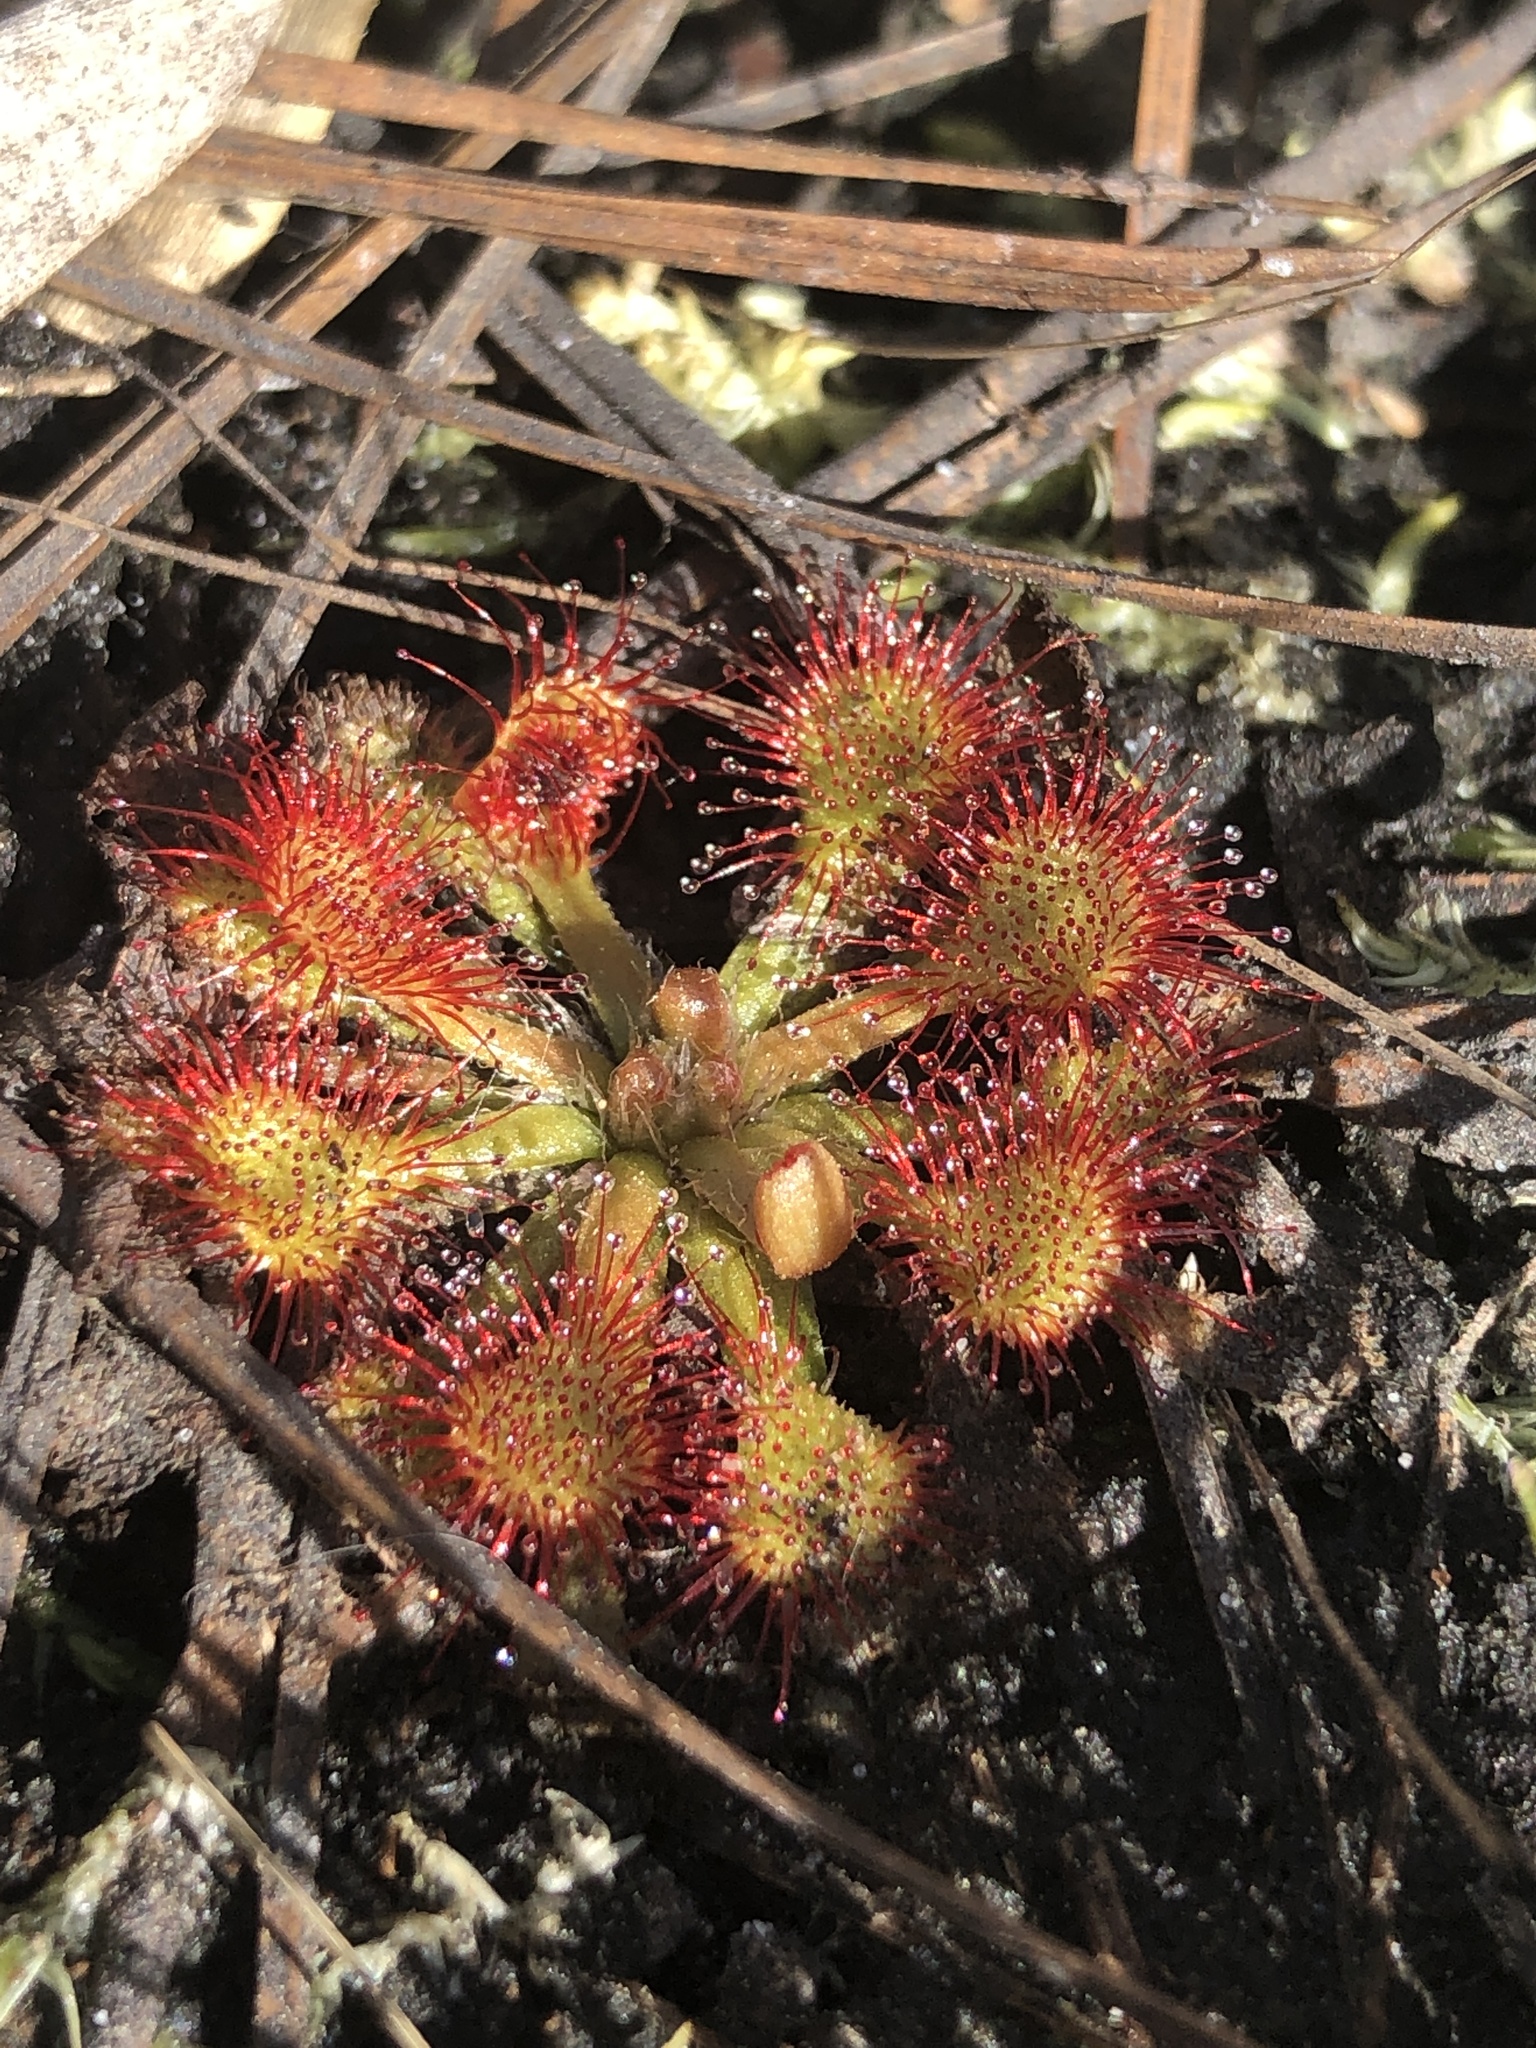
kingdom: Plantae
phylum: Tracheophyta
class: Magnoliopsida
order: Caryophyllales
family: Droseraceae
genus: Drosera
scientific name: Drosera capillaris
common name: Pink sundew
